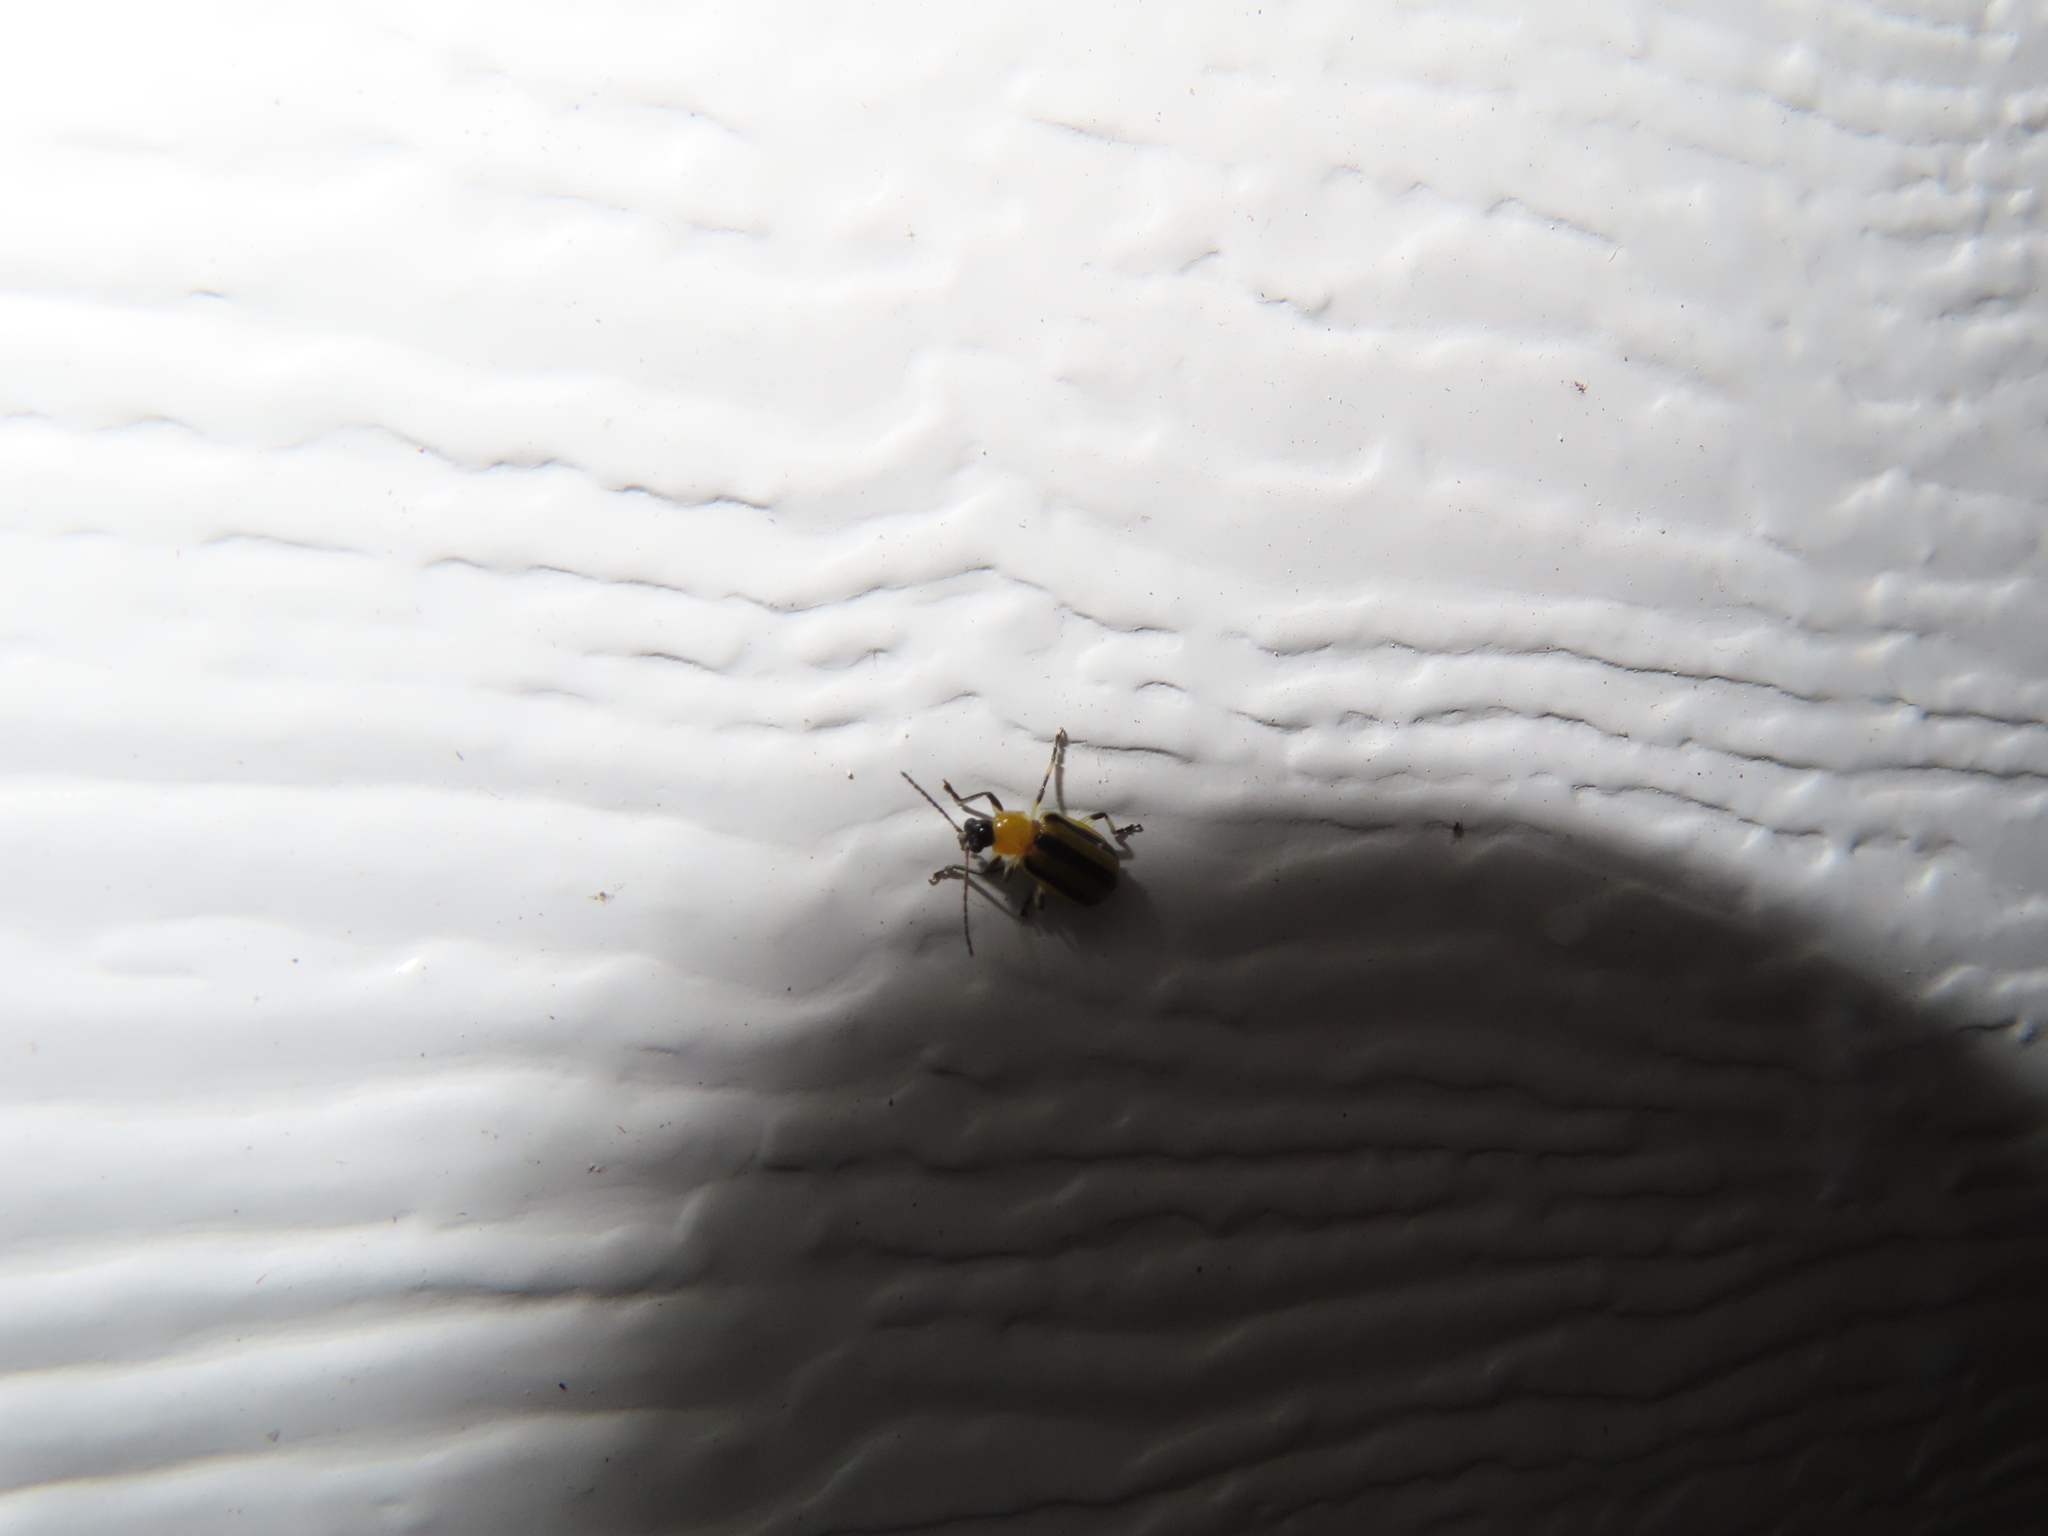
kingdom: Animalia
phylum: Arthropoda
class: Insecta
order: Coleoptera
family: Chrysomelidae
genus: Acalymma
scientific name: Acalymma vittatum
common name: Striped cucumber beetle
